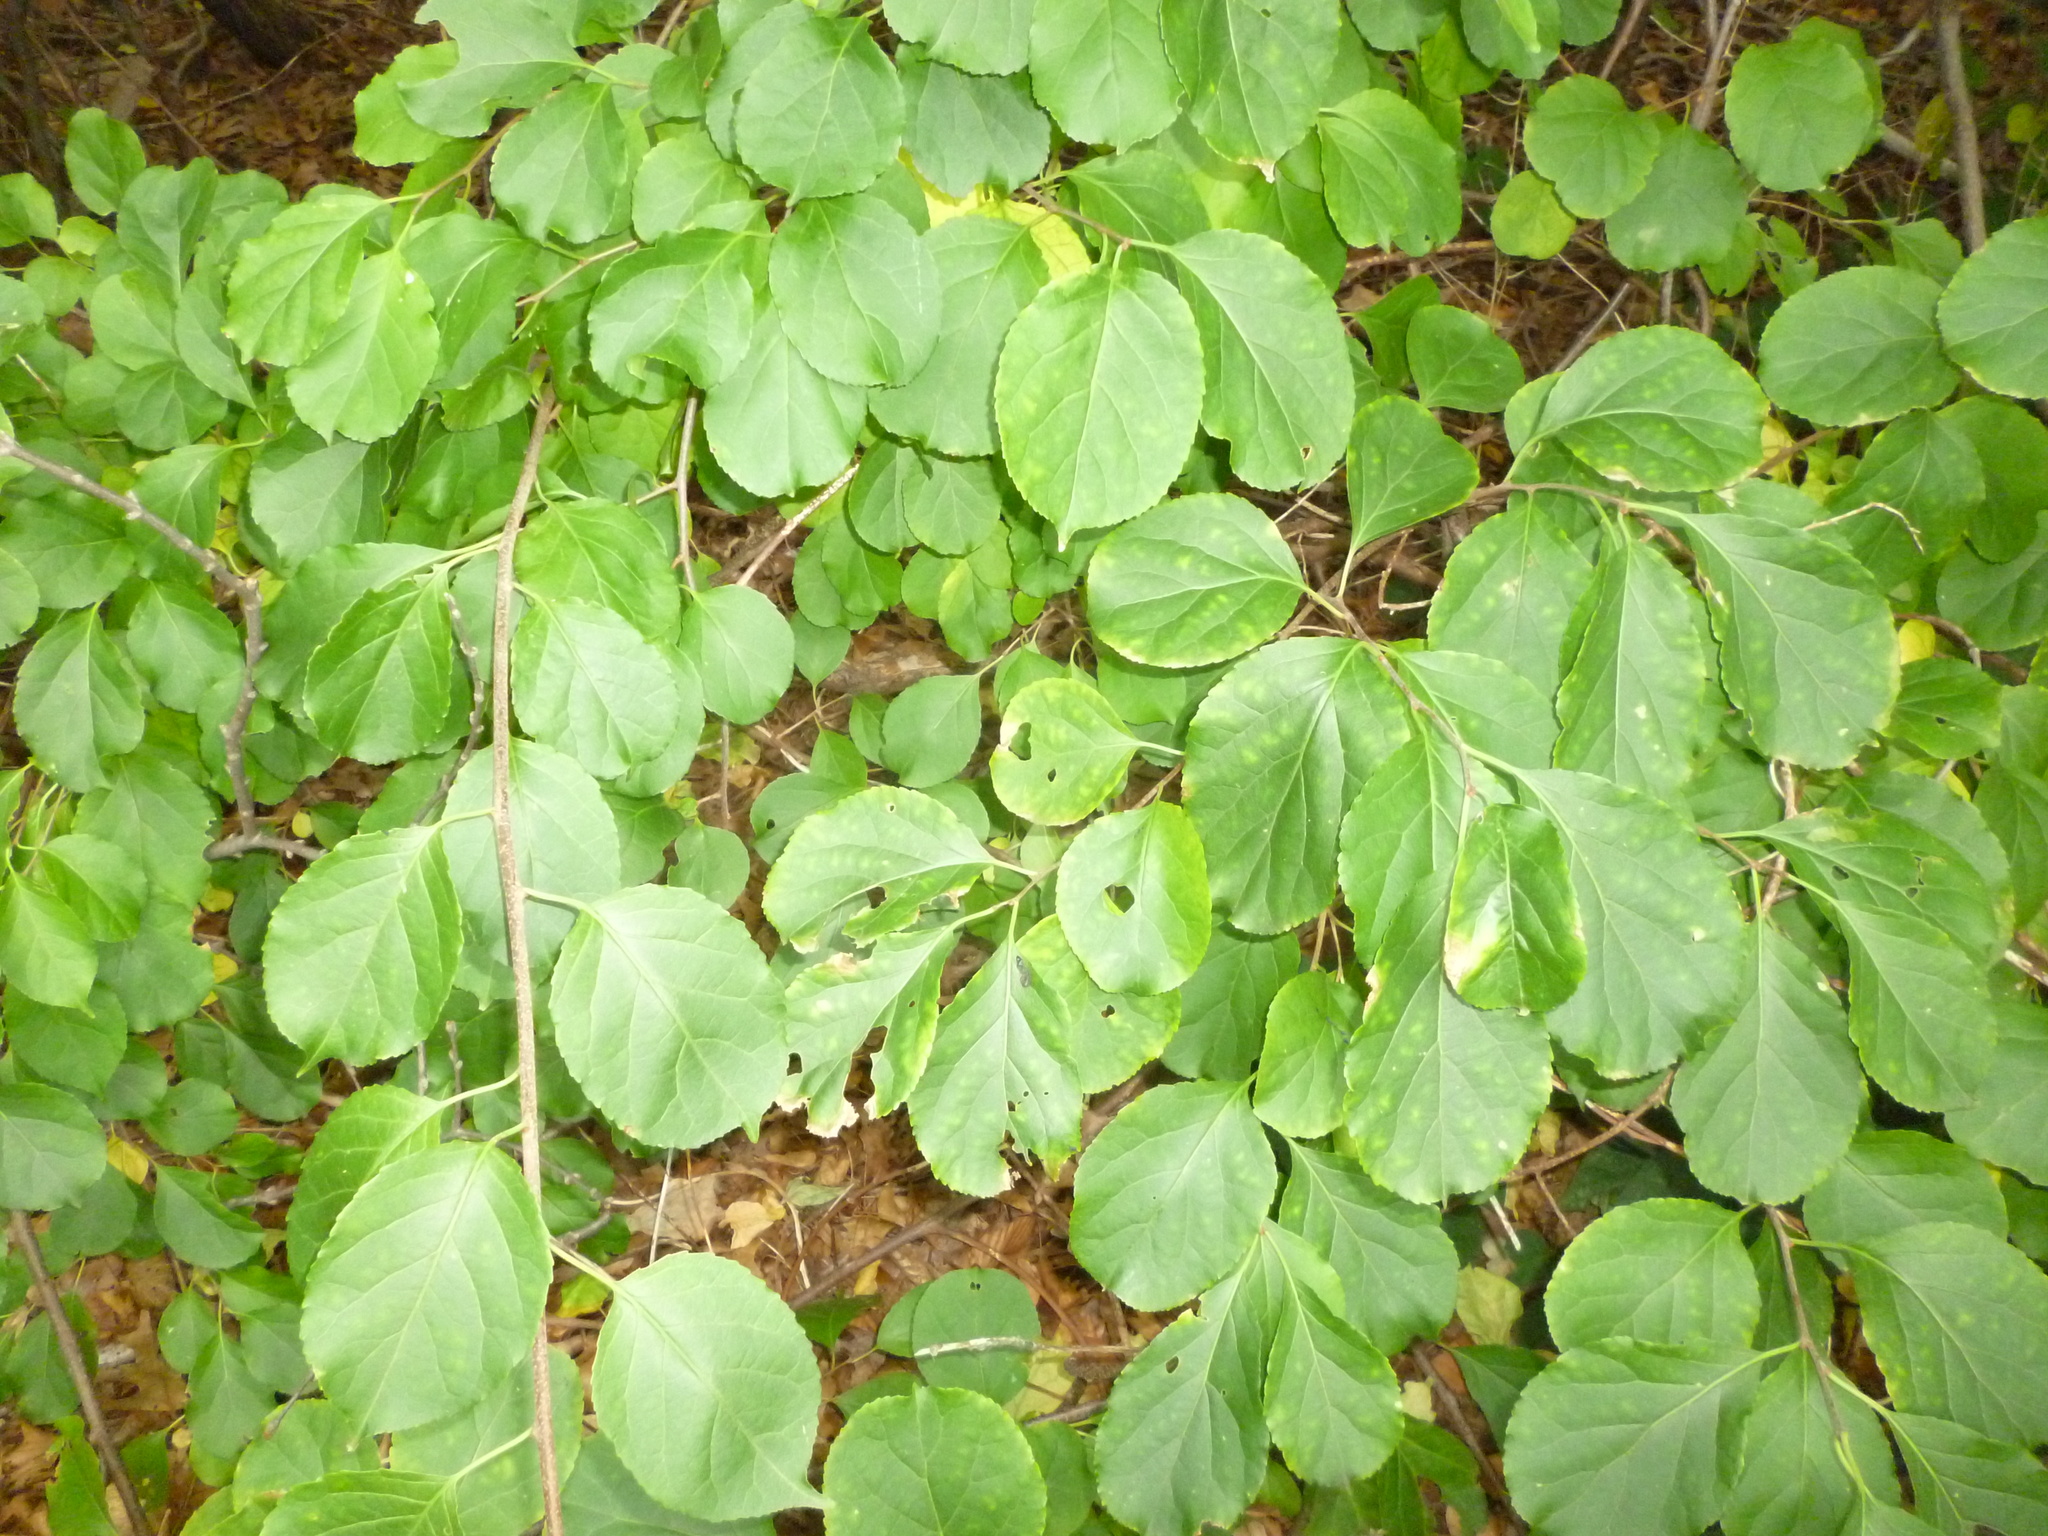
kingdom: Plantae
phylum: Tracheophyta
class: Magnoliopsida
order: Celastrales
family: Celastraceae
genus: Celastrus
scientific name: Celastrus orbiculatus
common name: Oriental bittersweet
